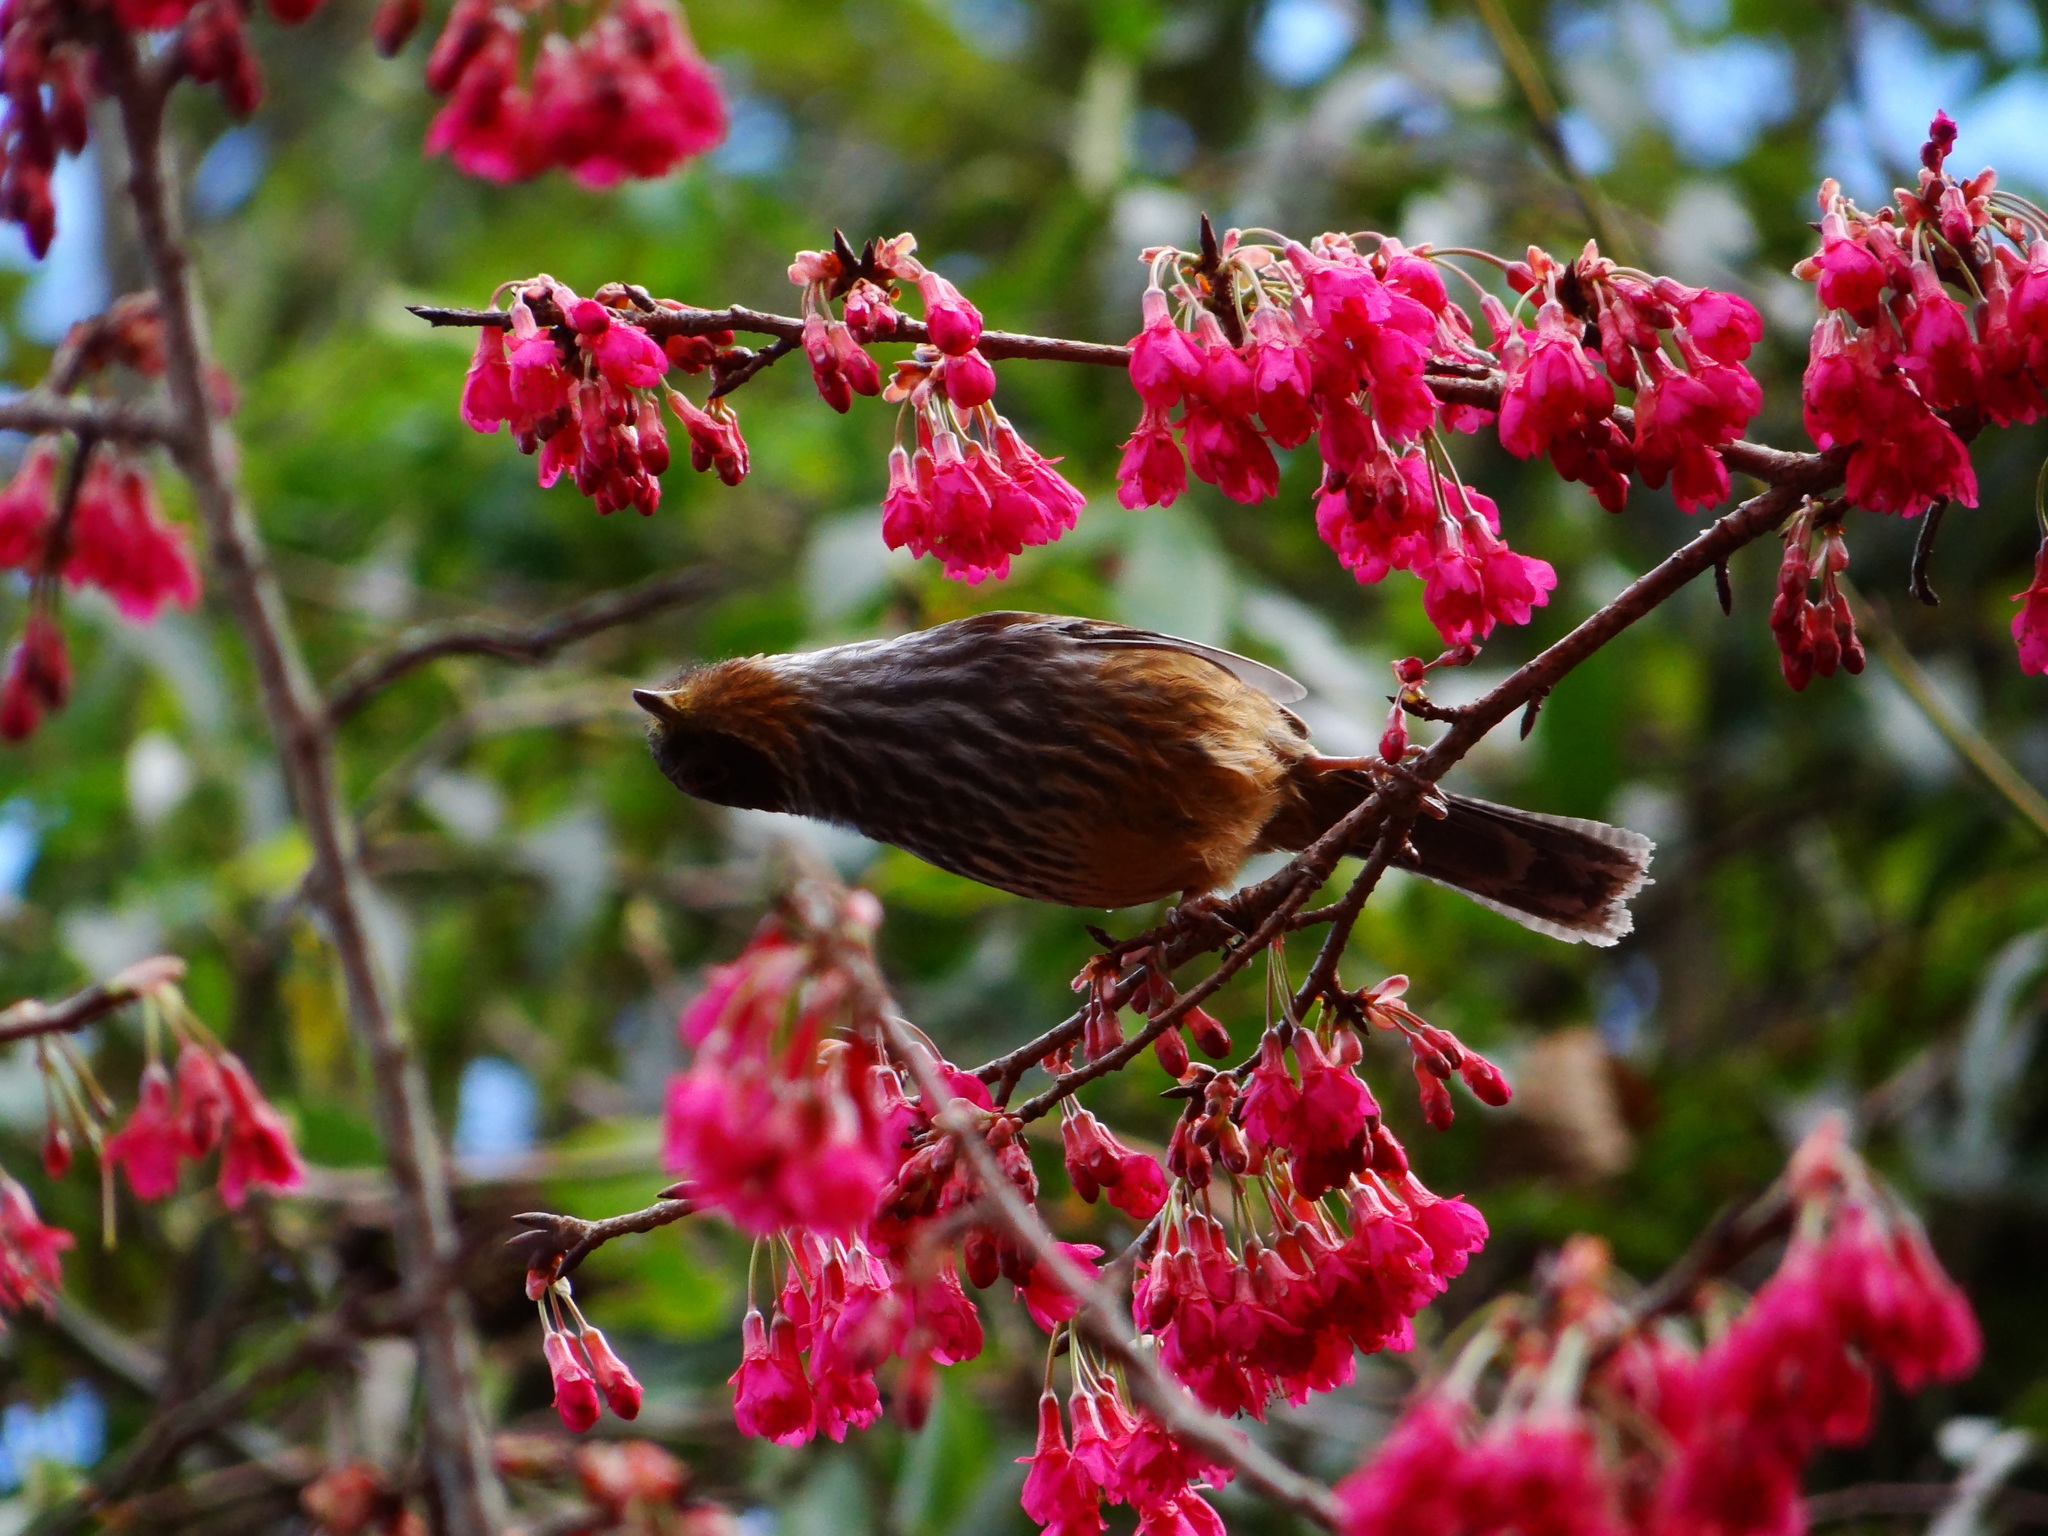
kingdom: Animalia
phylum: Chordata
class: Aves
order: Passeriformes
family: Leiothrichidae
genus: Actinodura
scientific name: Actinodura morrisoniana
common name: Taiwan barwing
